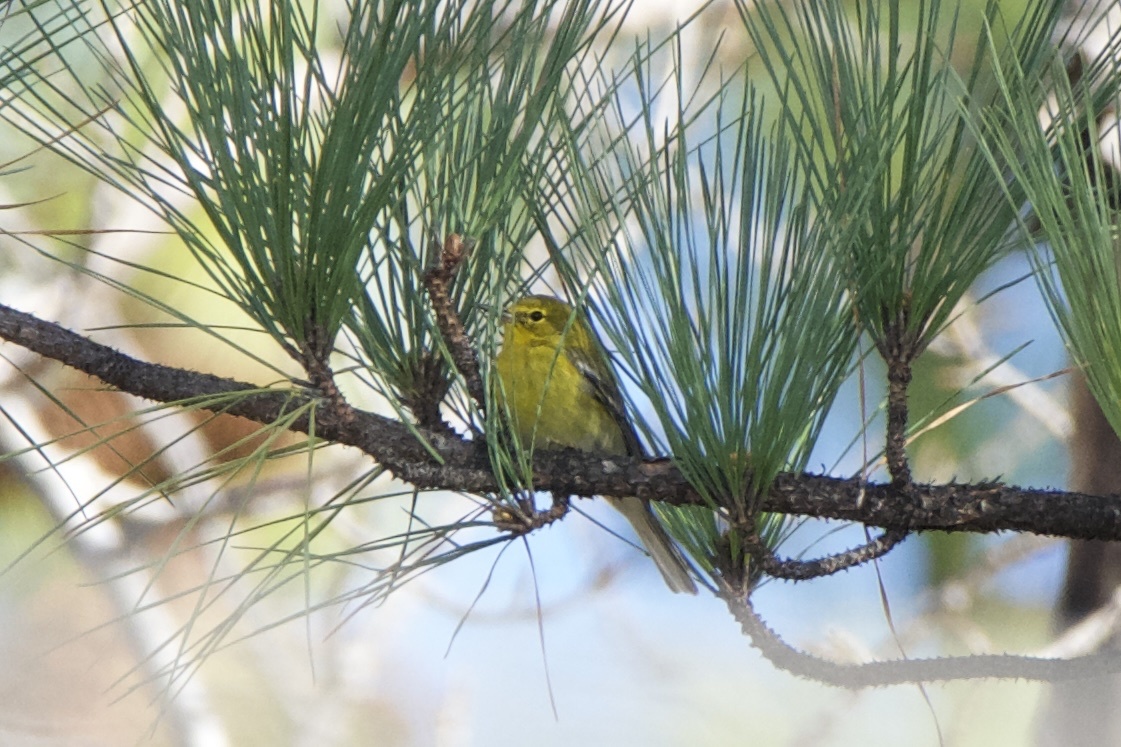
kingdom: Animalia
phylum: Chordata
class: Aves
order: Passeriformes
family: Parulidae
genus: Setophaga
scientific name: Setophaga pinus
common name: Pine warbler
